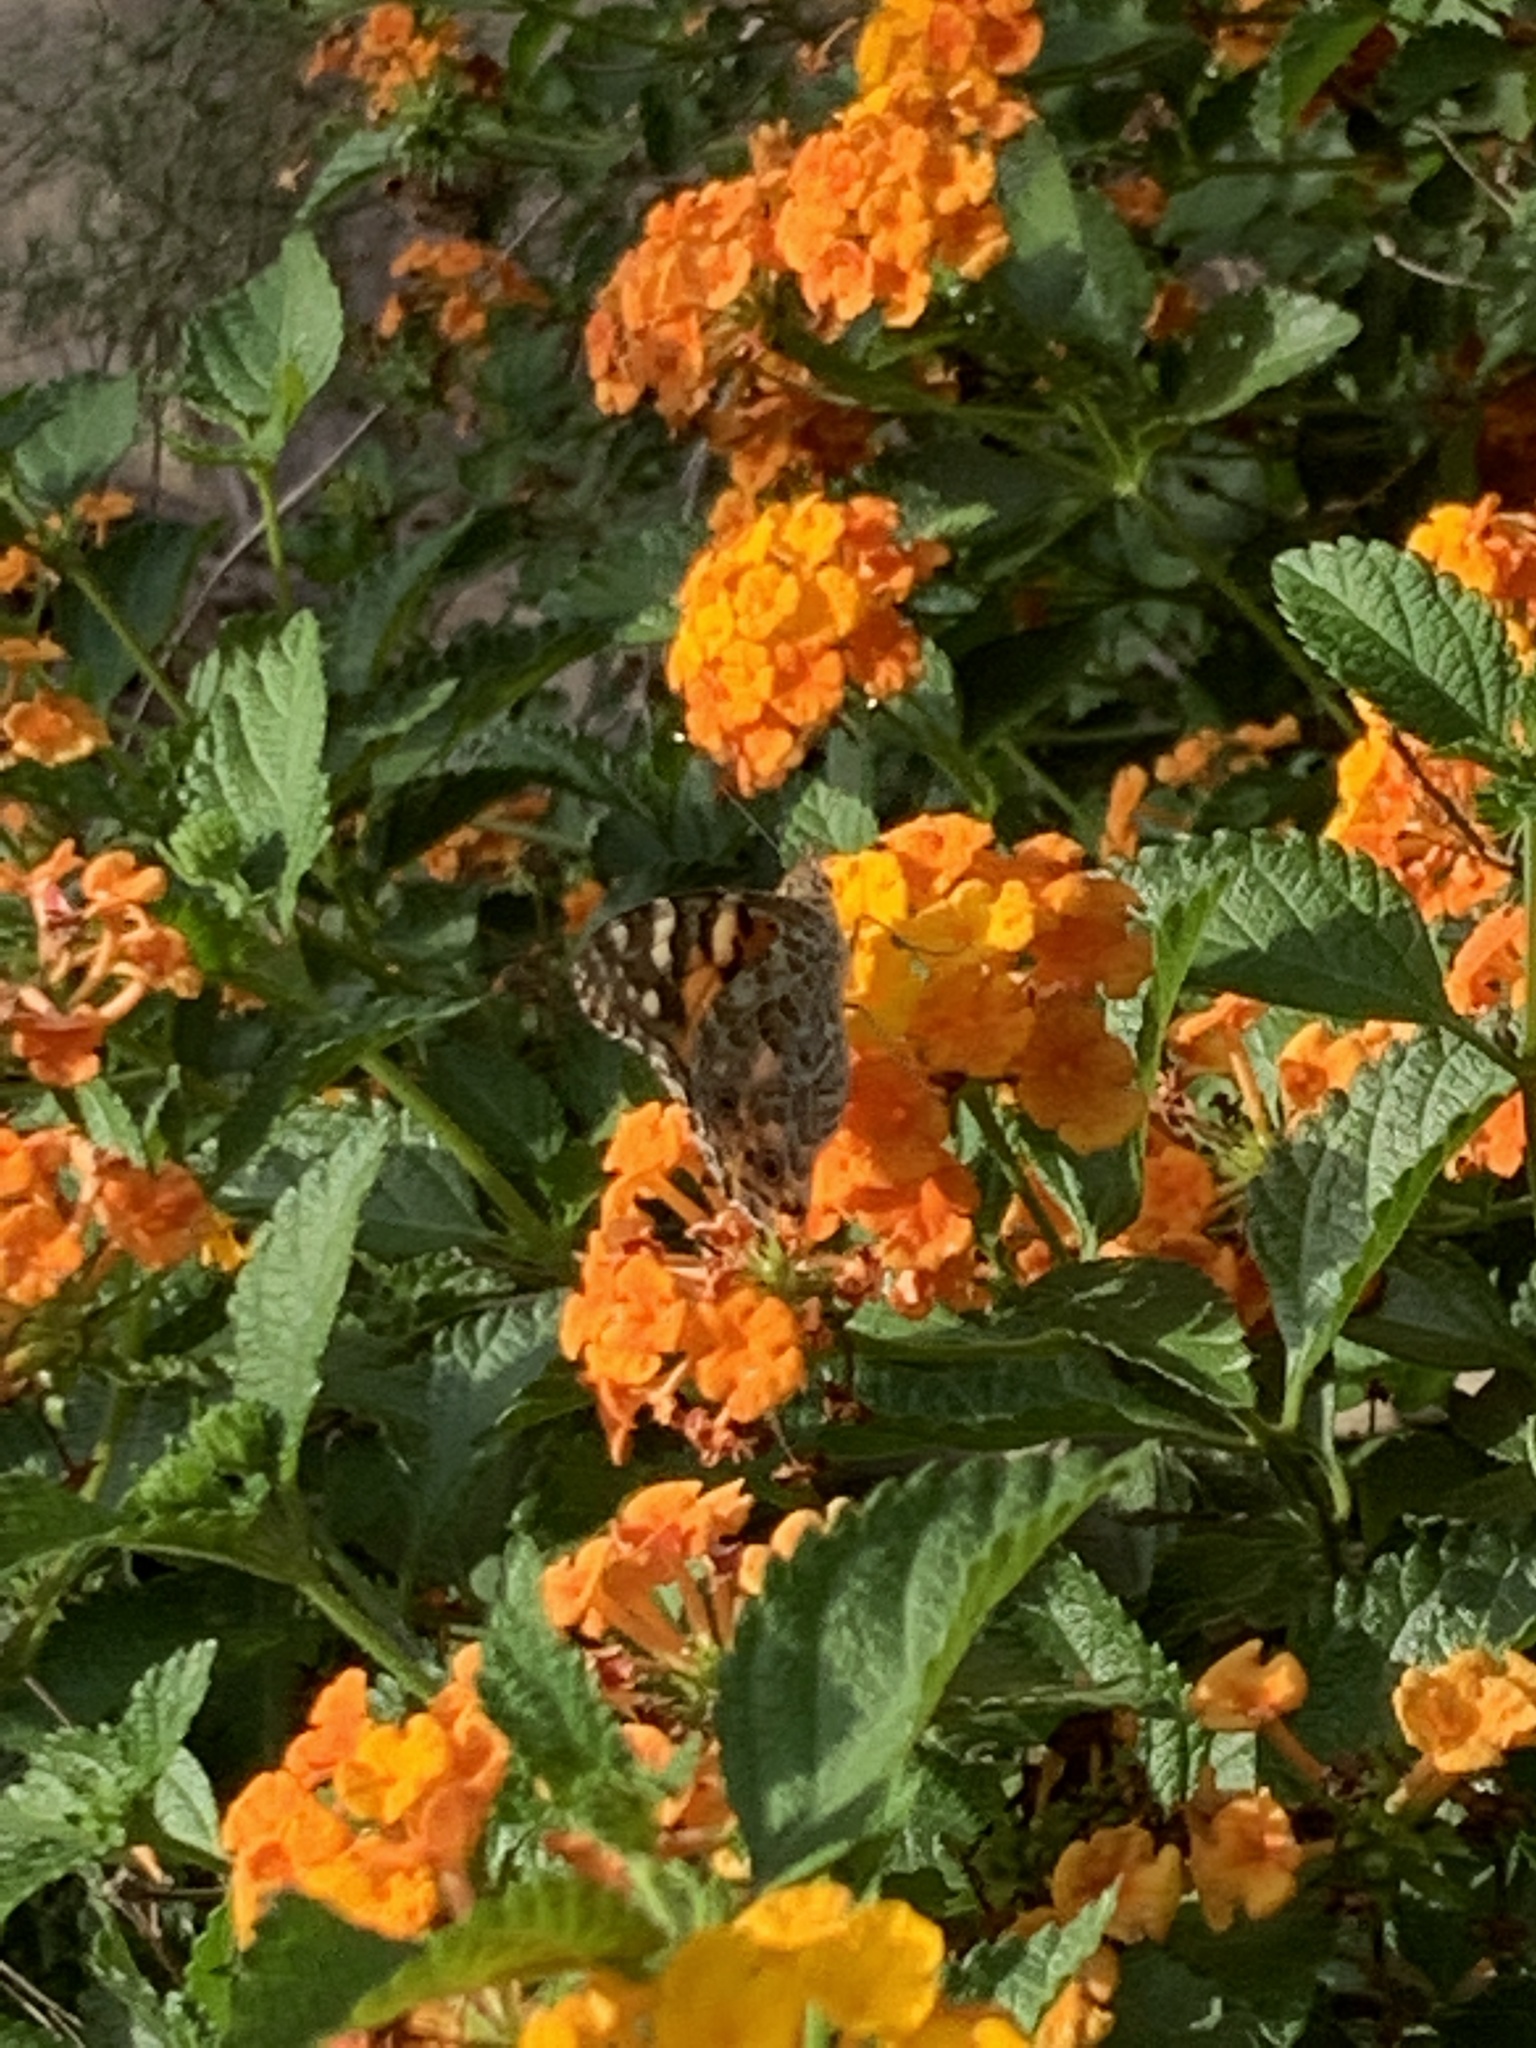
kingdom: Animalia
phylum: Arthropoda
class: Insecta
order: Lepidoptera
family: Nymphalidae
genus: Vanessa
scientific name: Vanessa cardui
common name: Painted lady
